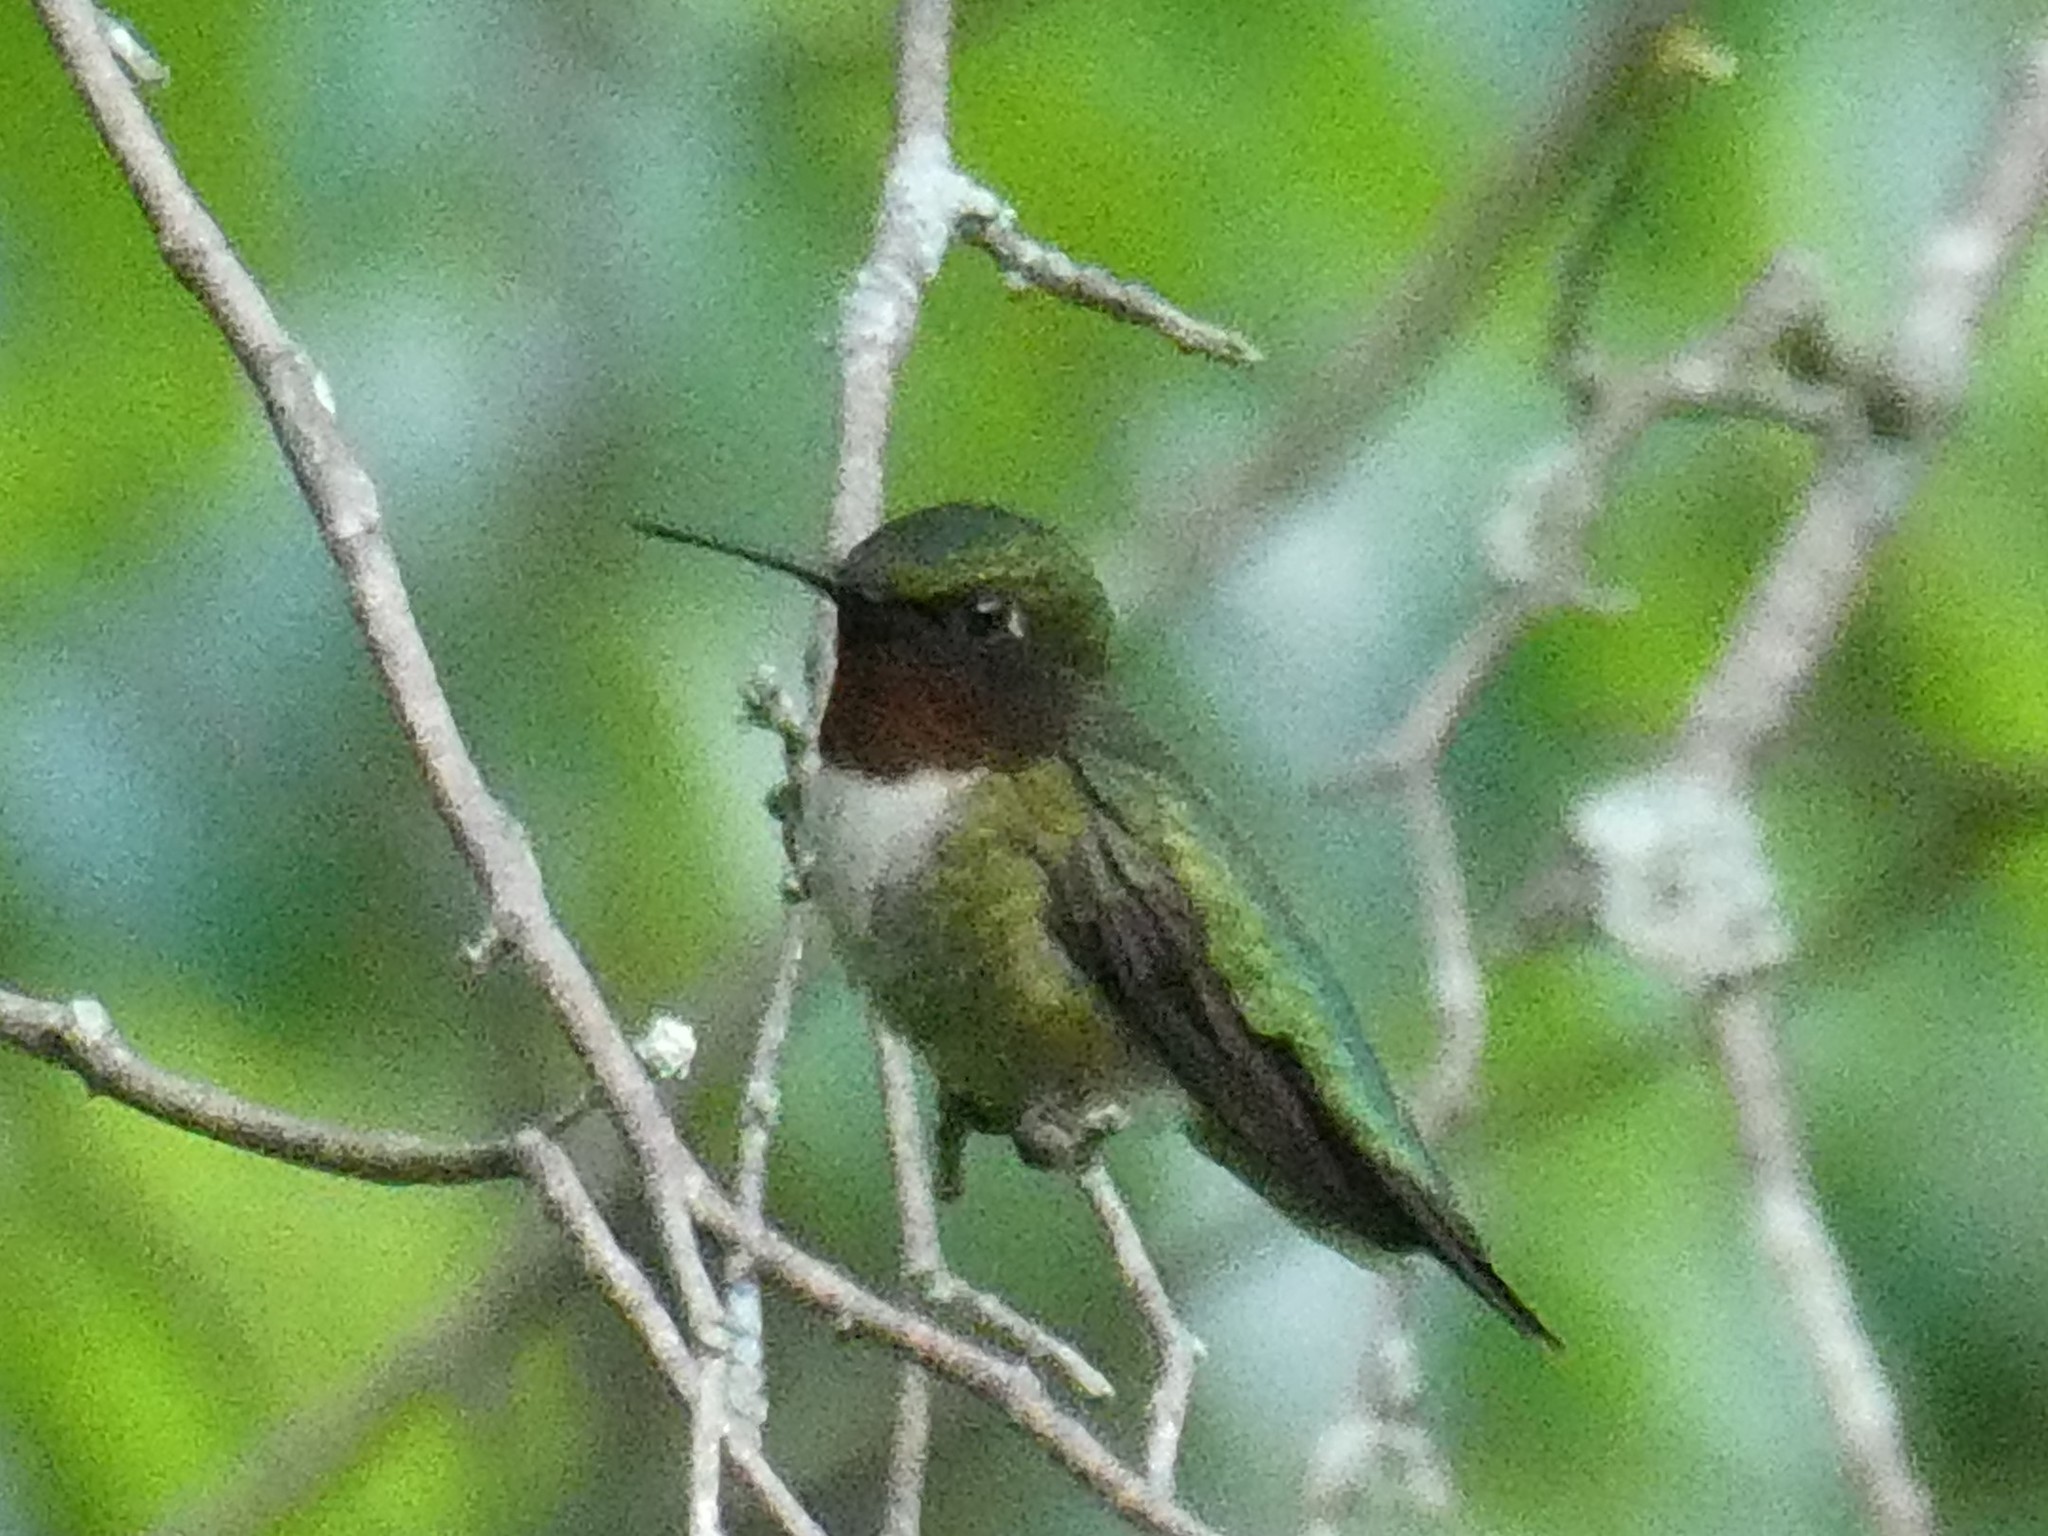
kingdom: Animalia
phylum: Chordata
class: Aves
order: Apodiformes
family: Trochilidae
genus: Archilochus
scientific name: Archilochus colubris
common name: Ruby-throated hummingbird
